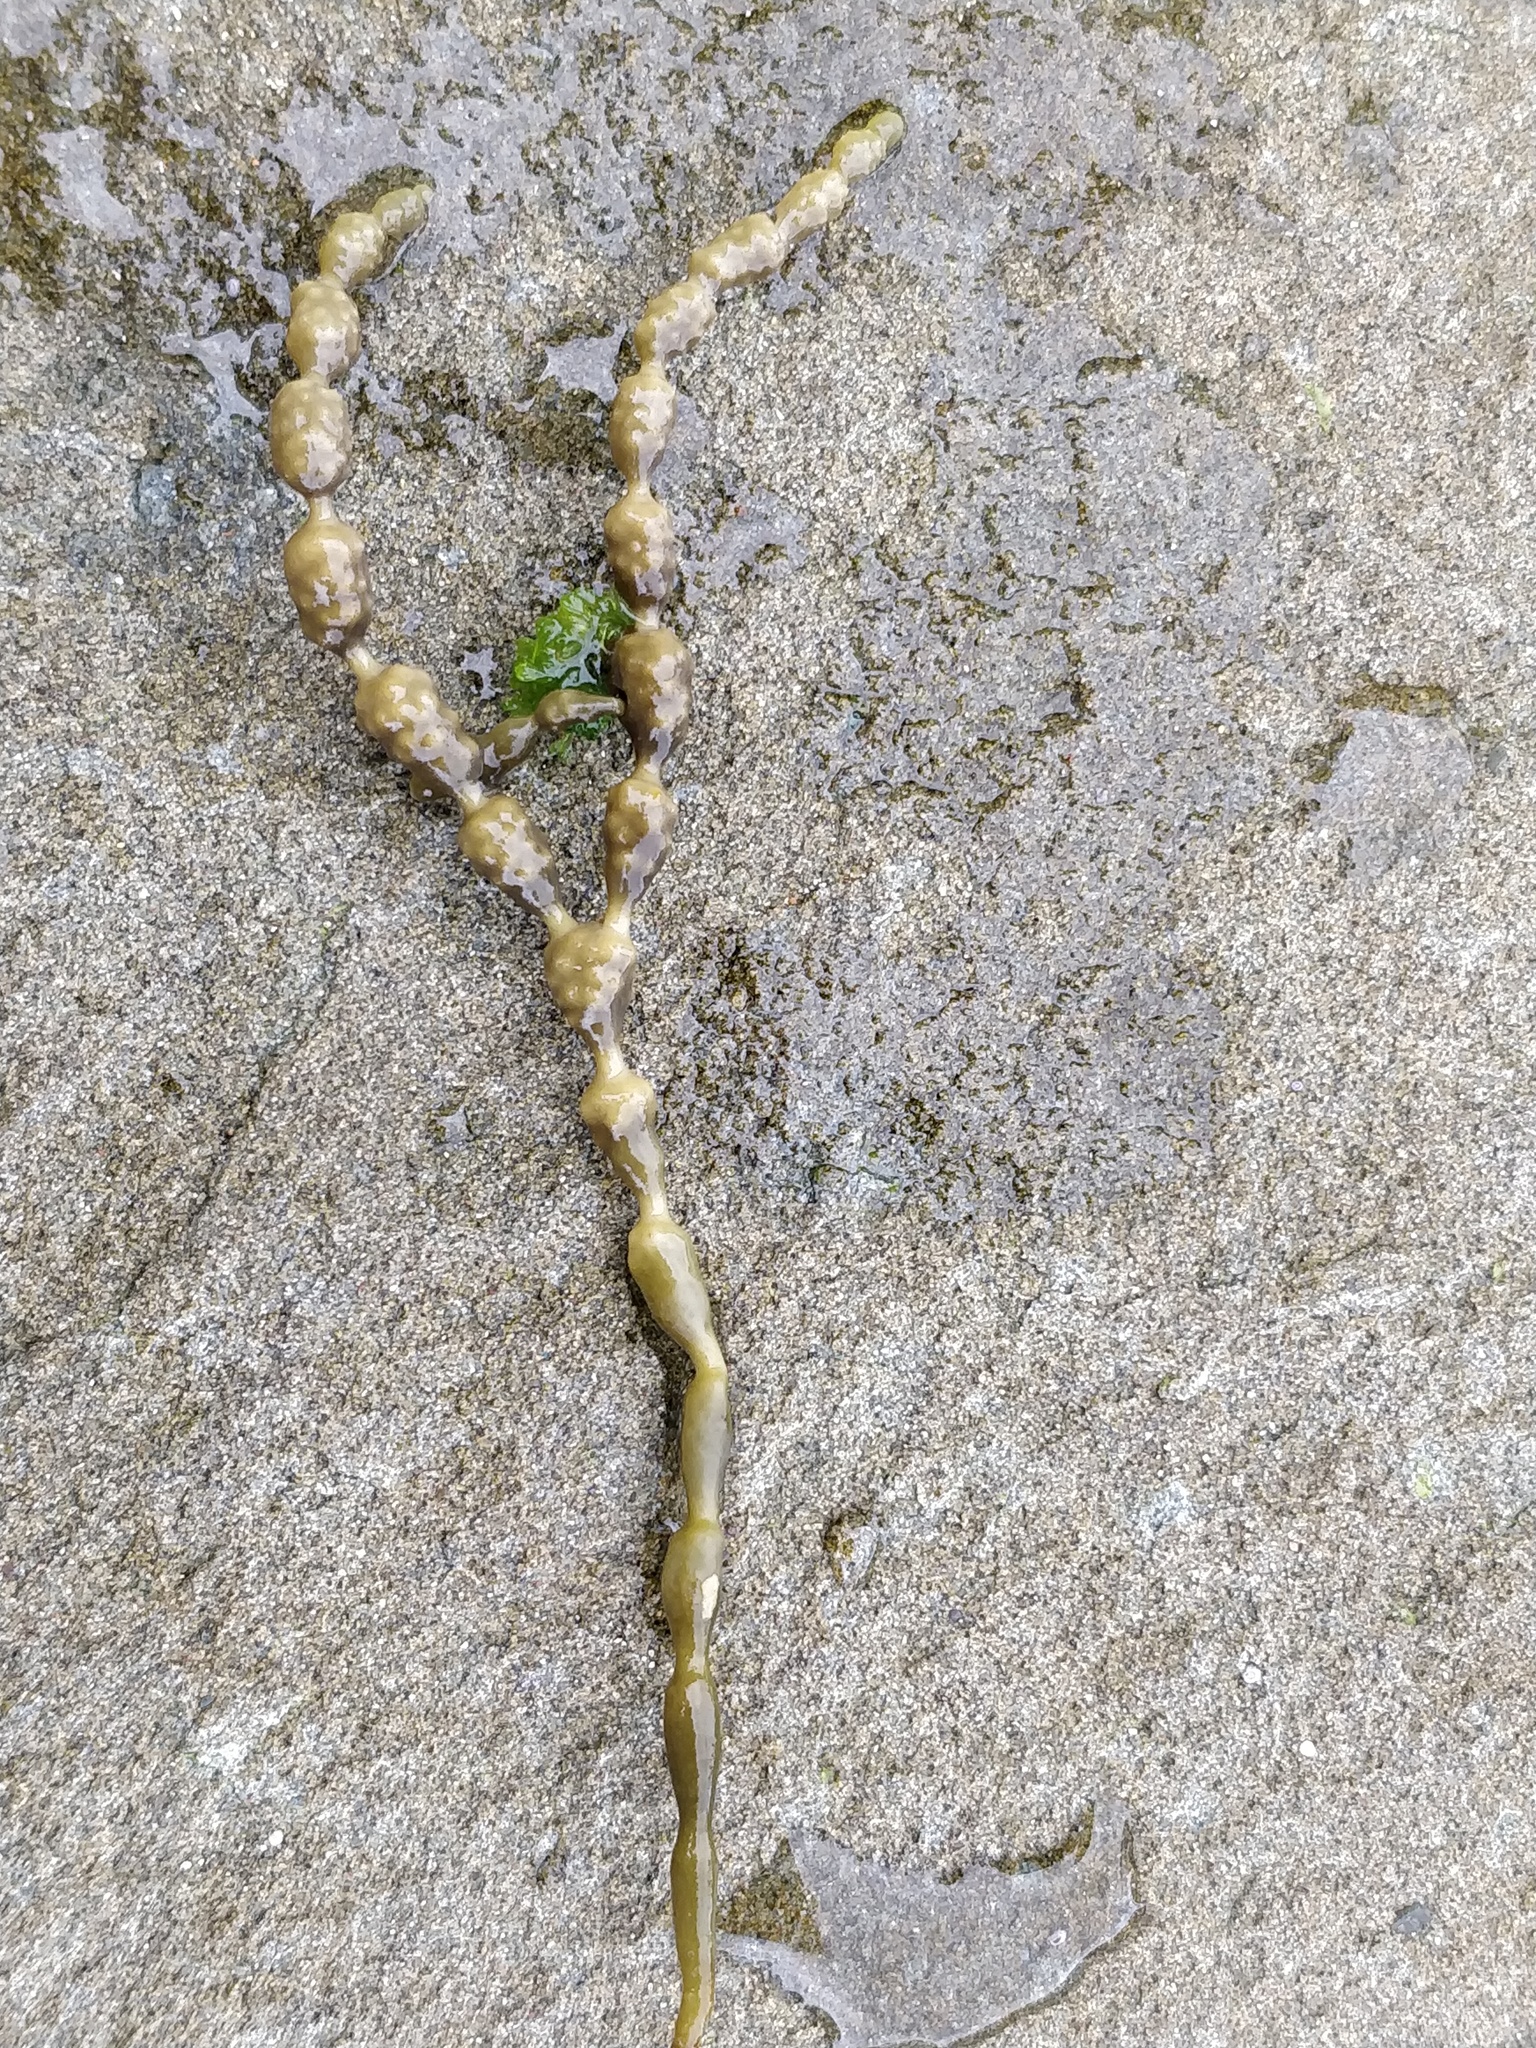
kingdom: Chromista
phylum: Ochrophyta
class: Phaeophyceae
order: Fucales
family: Hormosiraceae
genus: Hormosira
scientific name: Hormosira banksii
